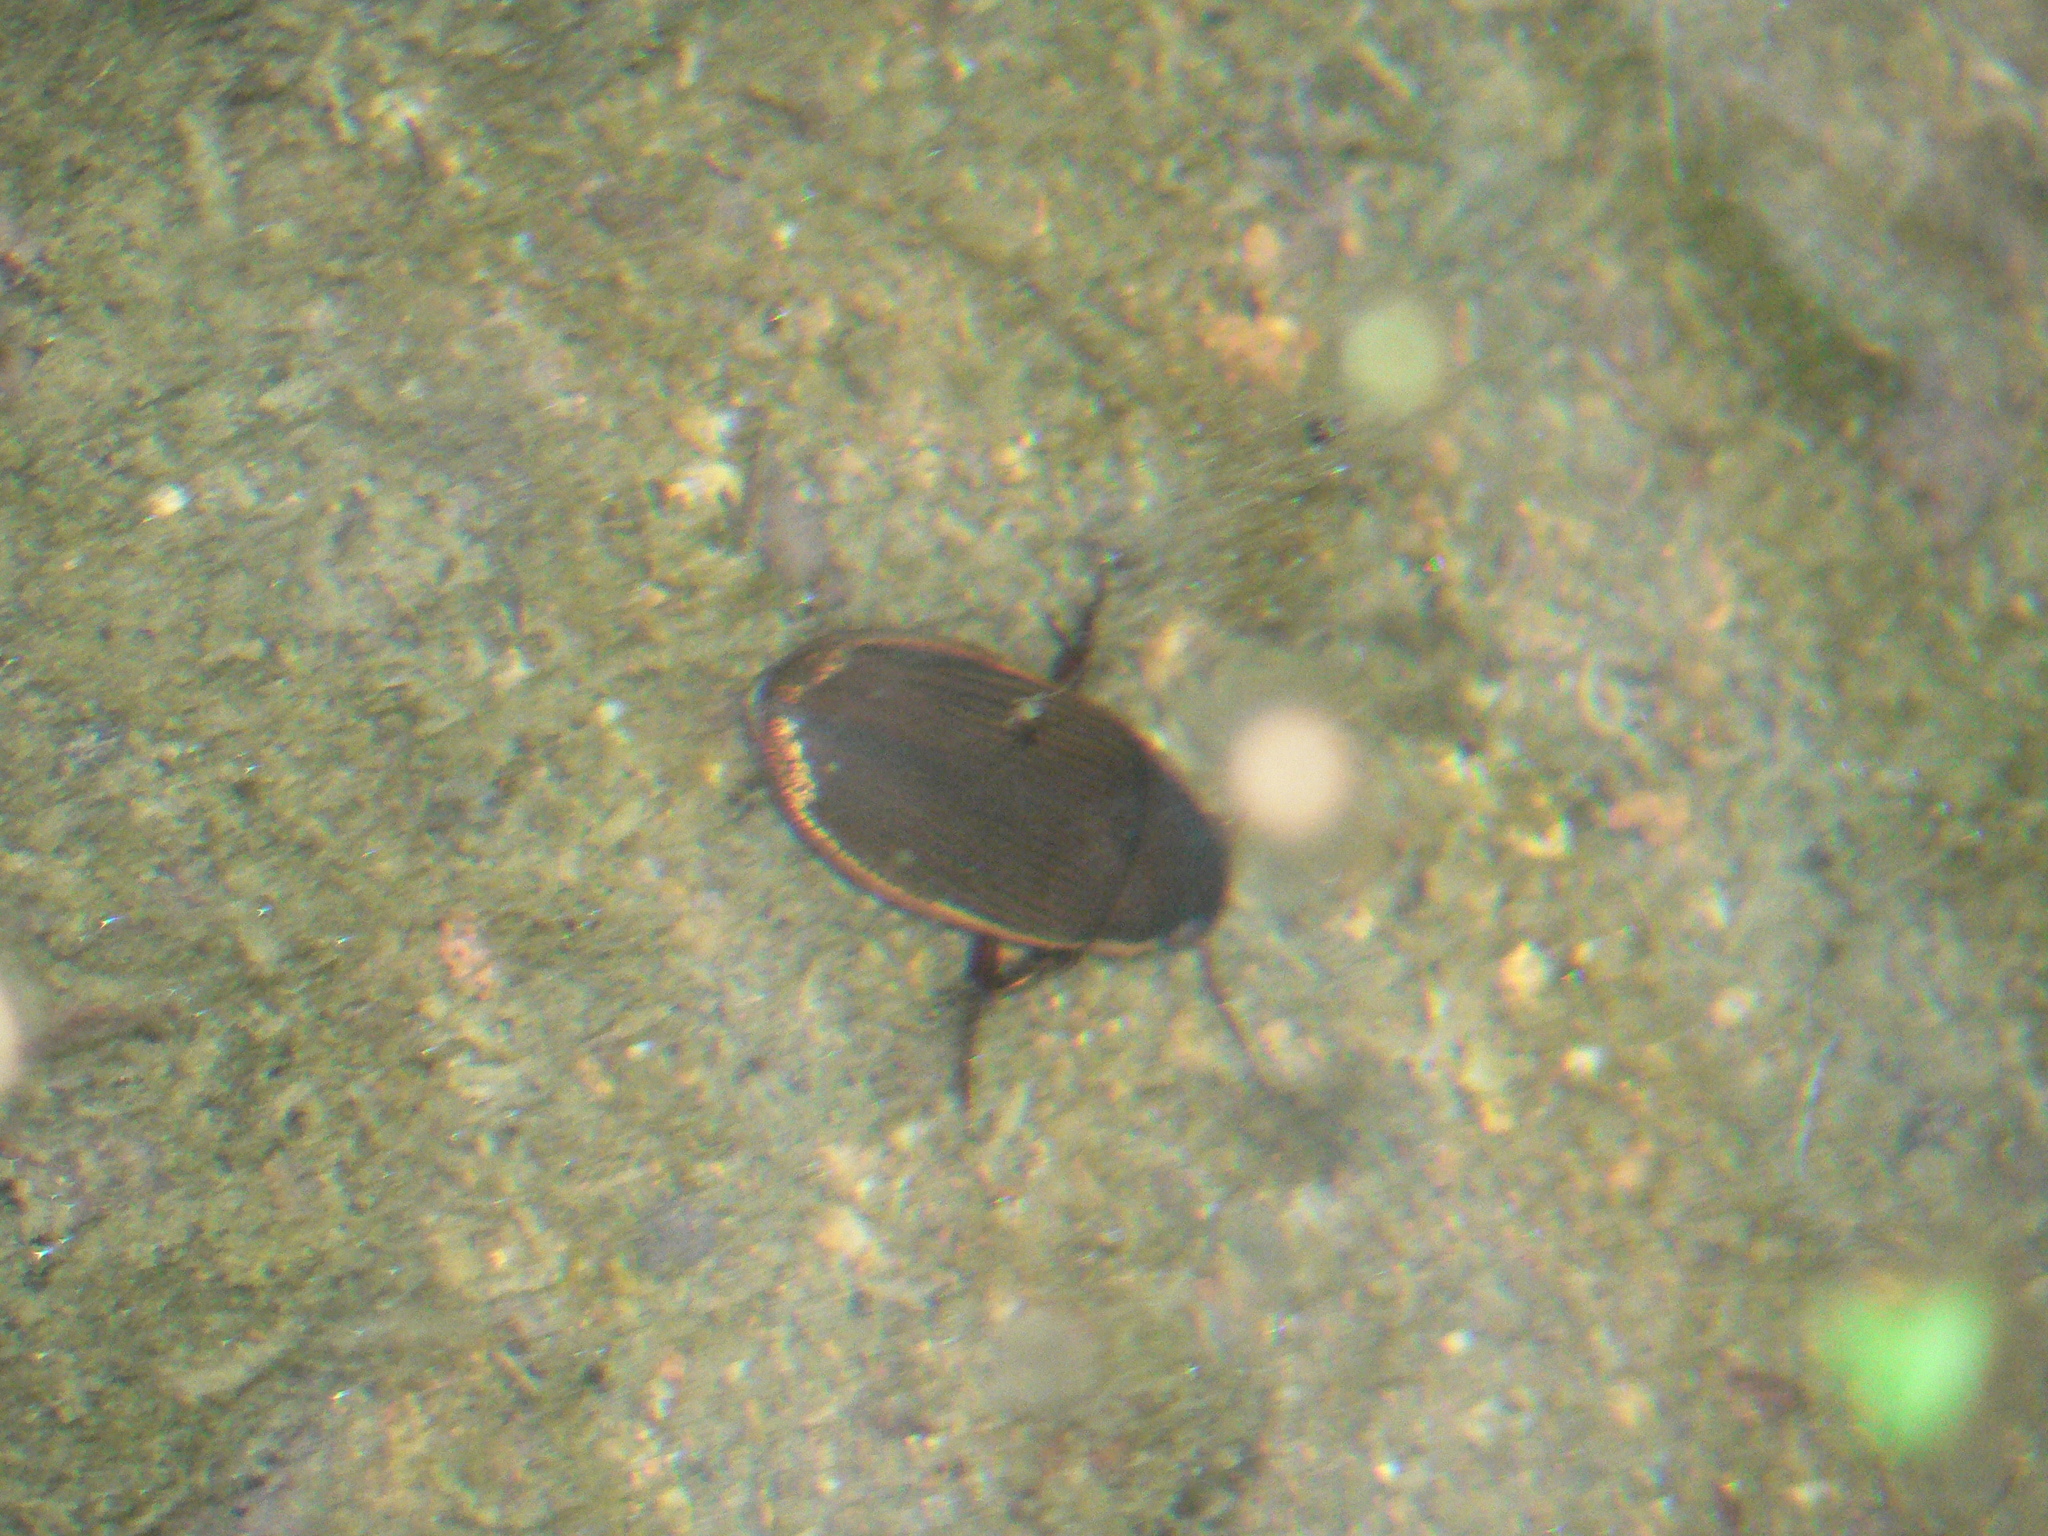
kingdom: Animalia
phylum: Arthropoda
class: Insecta
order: Coleoptera
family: Dytiscidae
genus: Dytiscus
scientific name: Dytiscus semisulcatus
